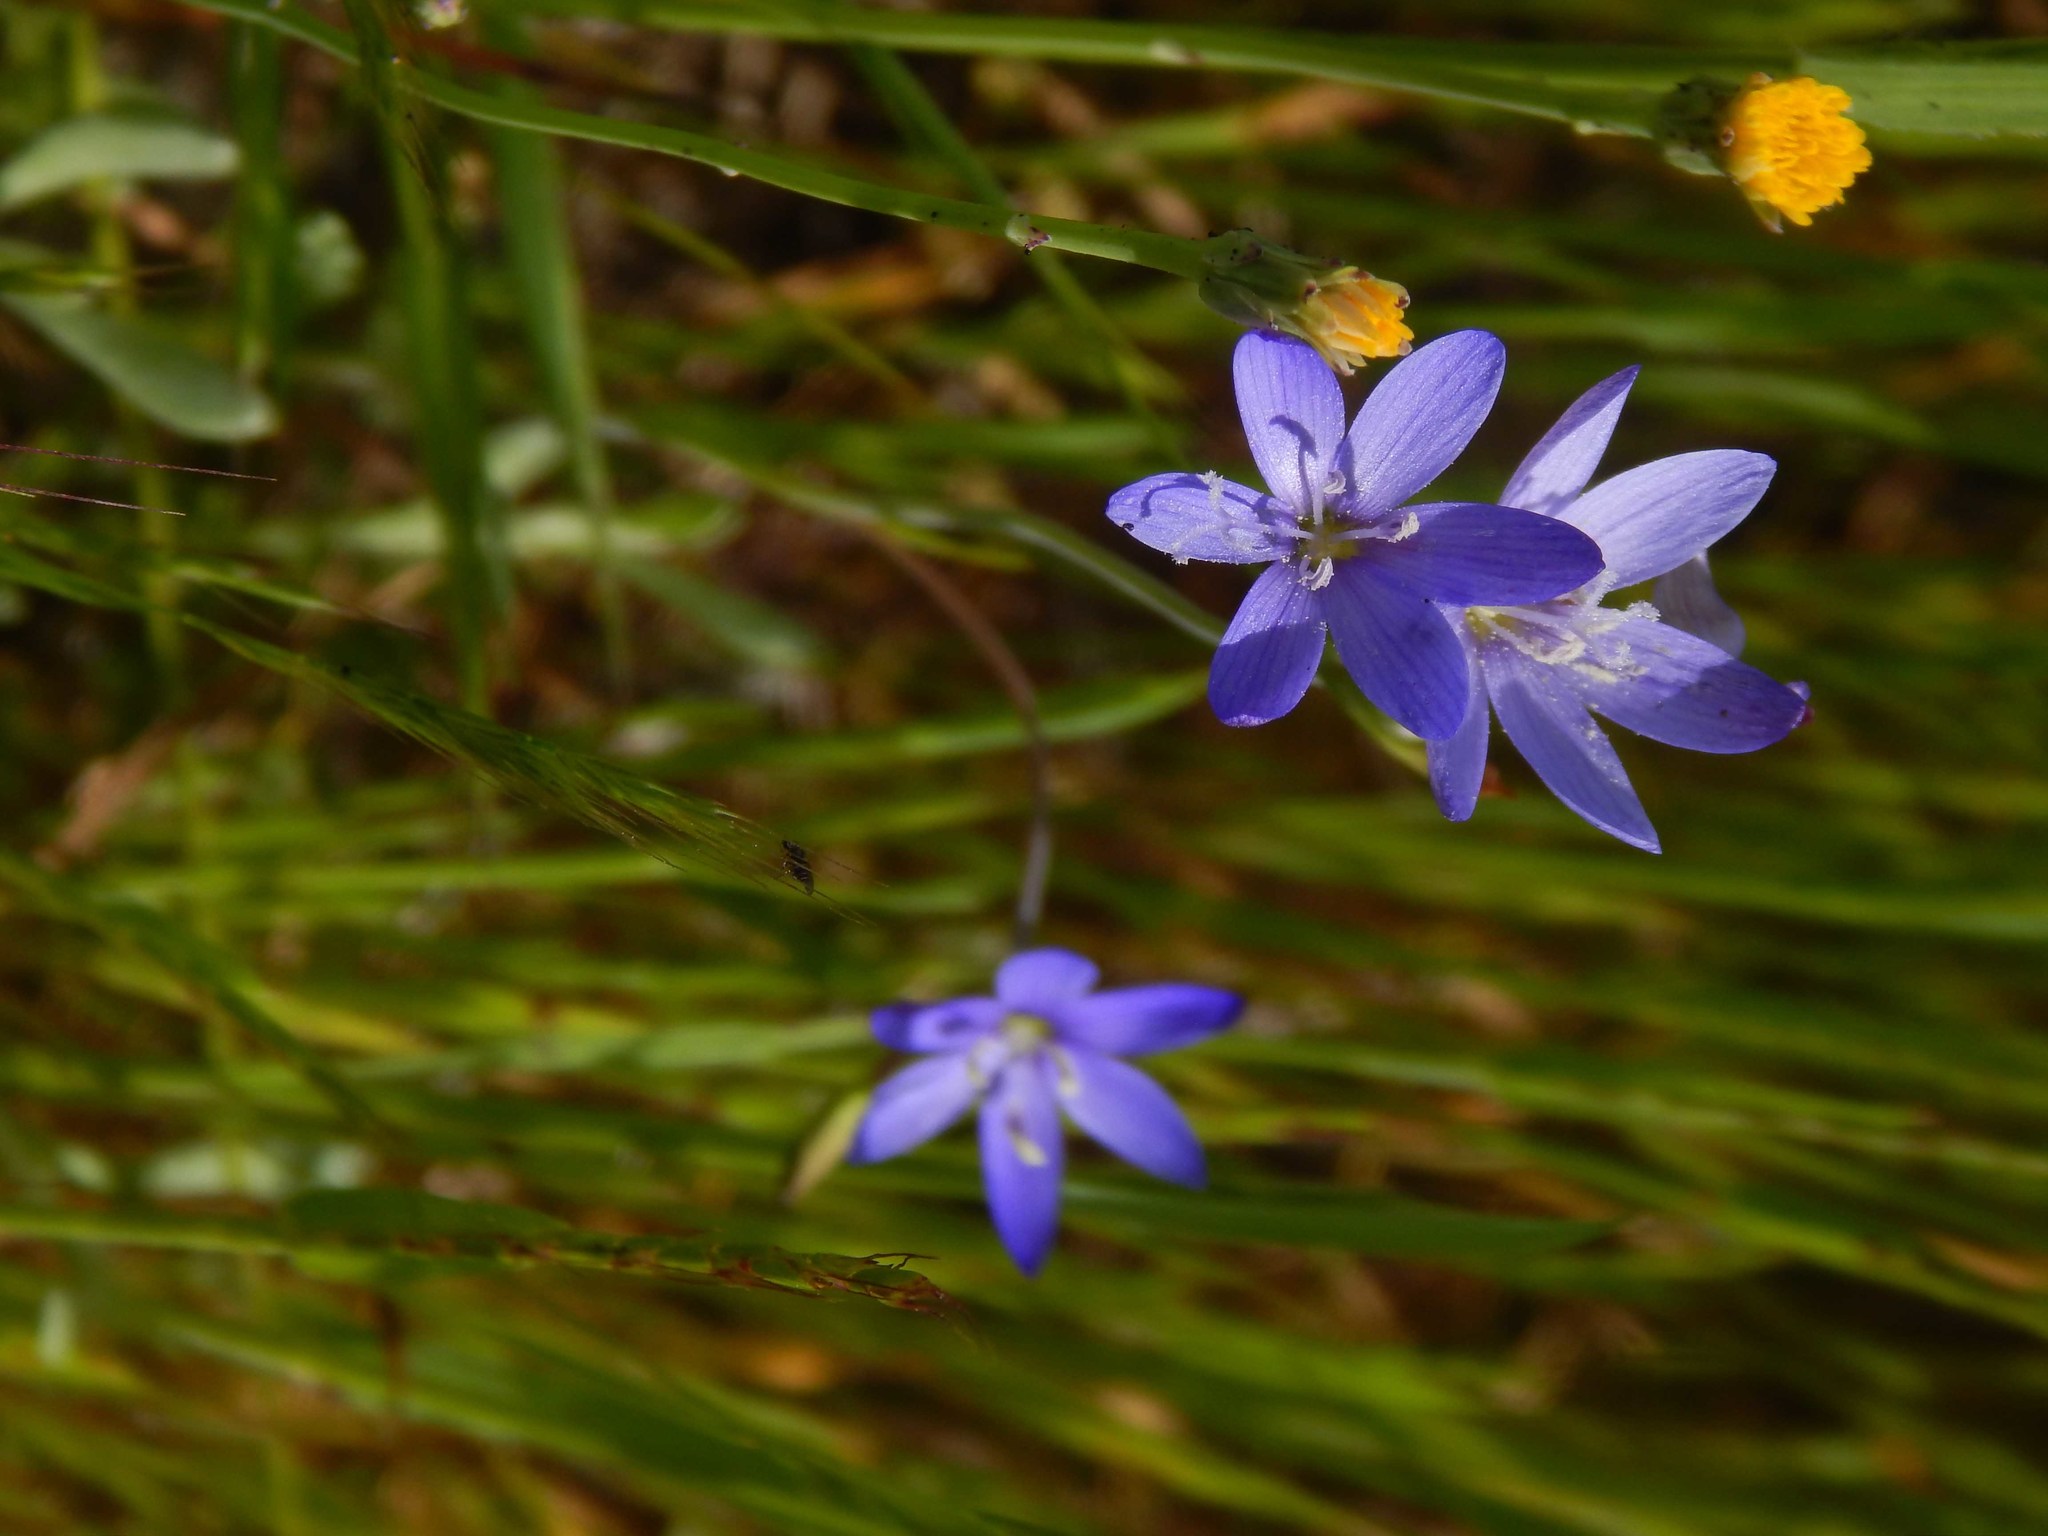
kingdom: Plantae
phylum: Tracheophyta
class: Liliopsida
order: Asparagales
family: Iridaceae
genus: Geissorhiza
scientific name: Geissorhiza aspera
